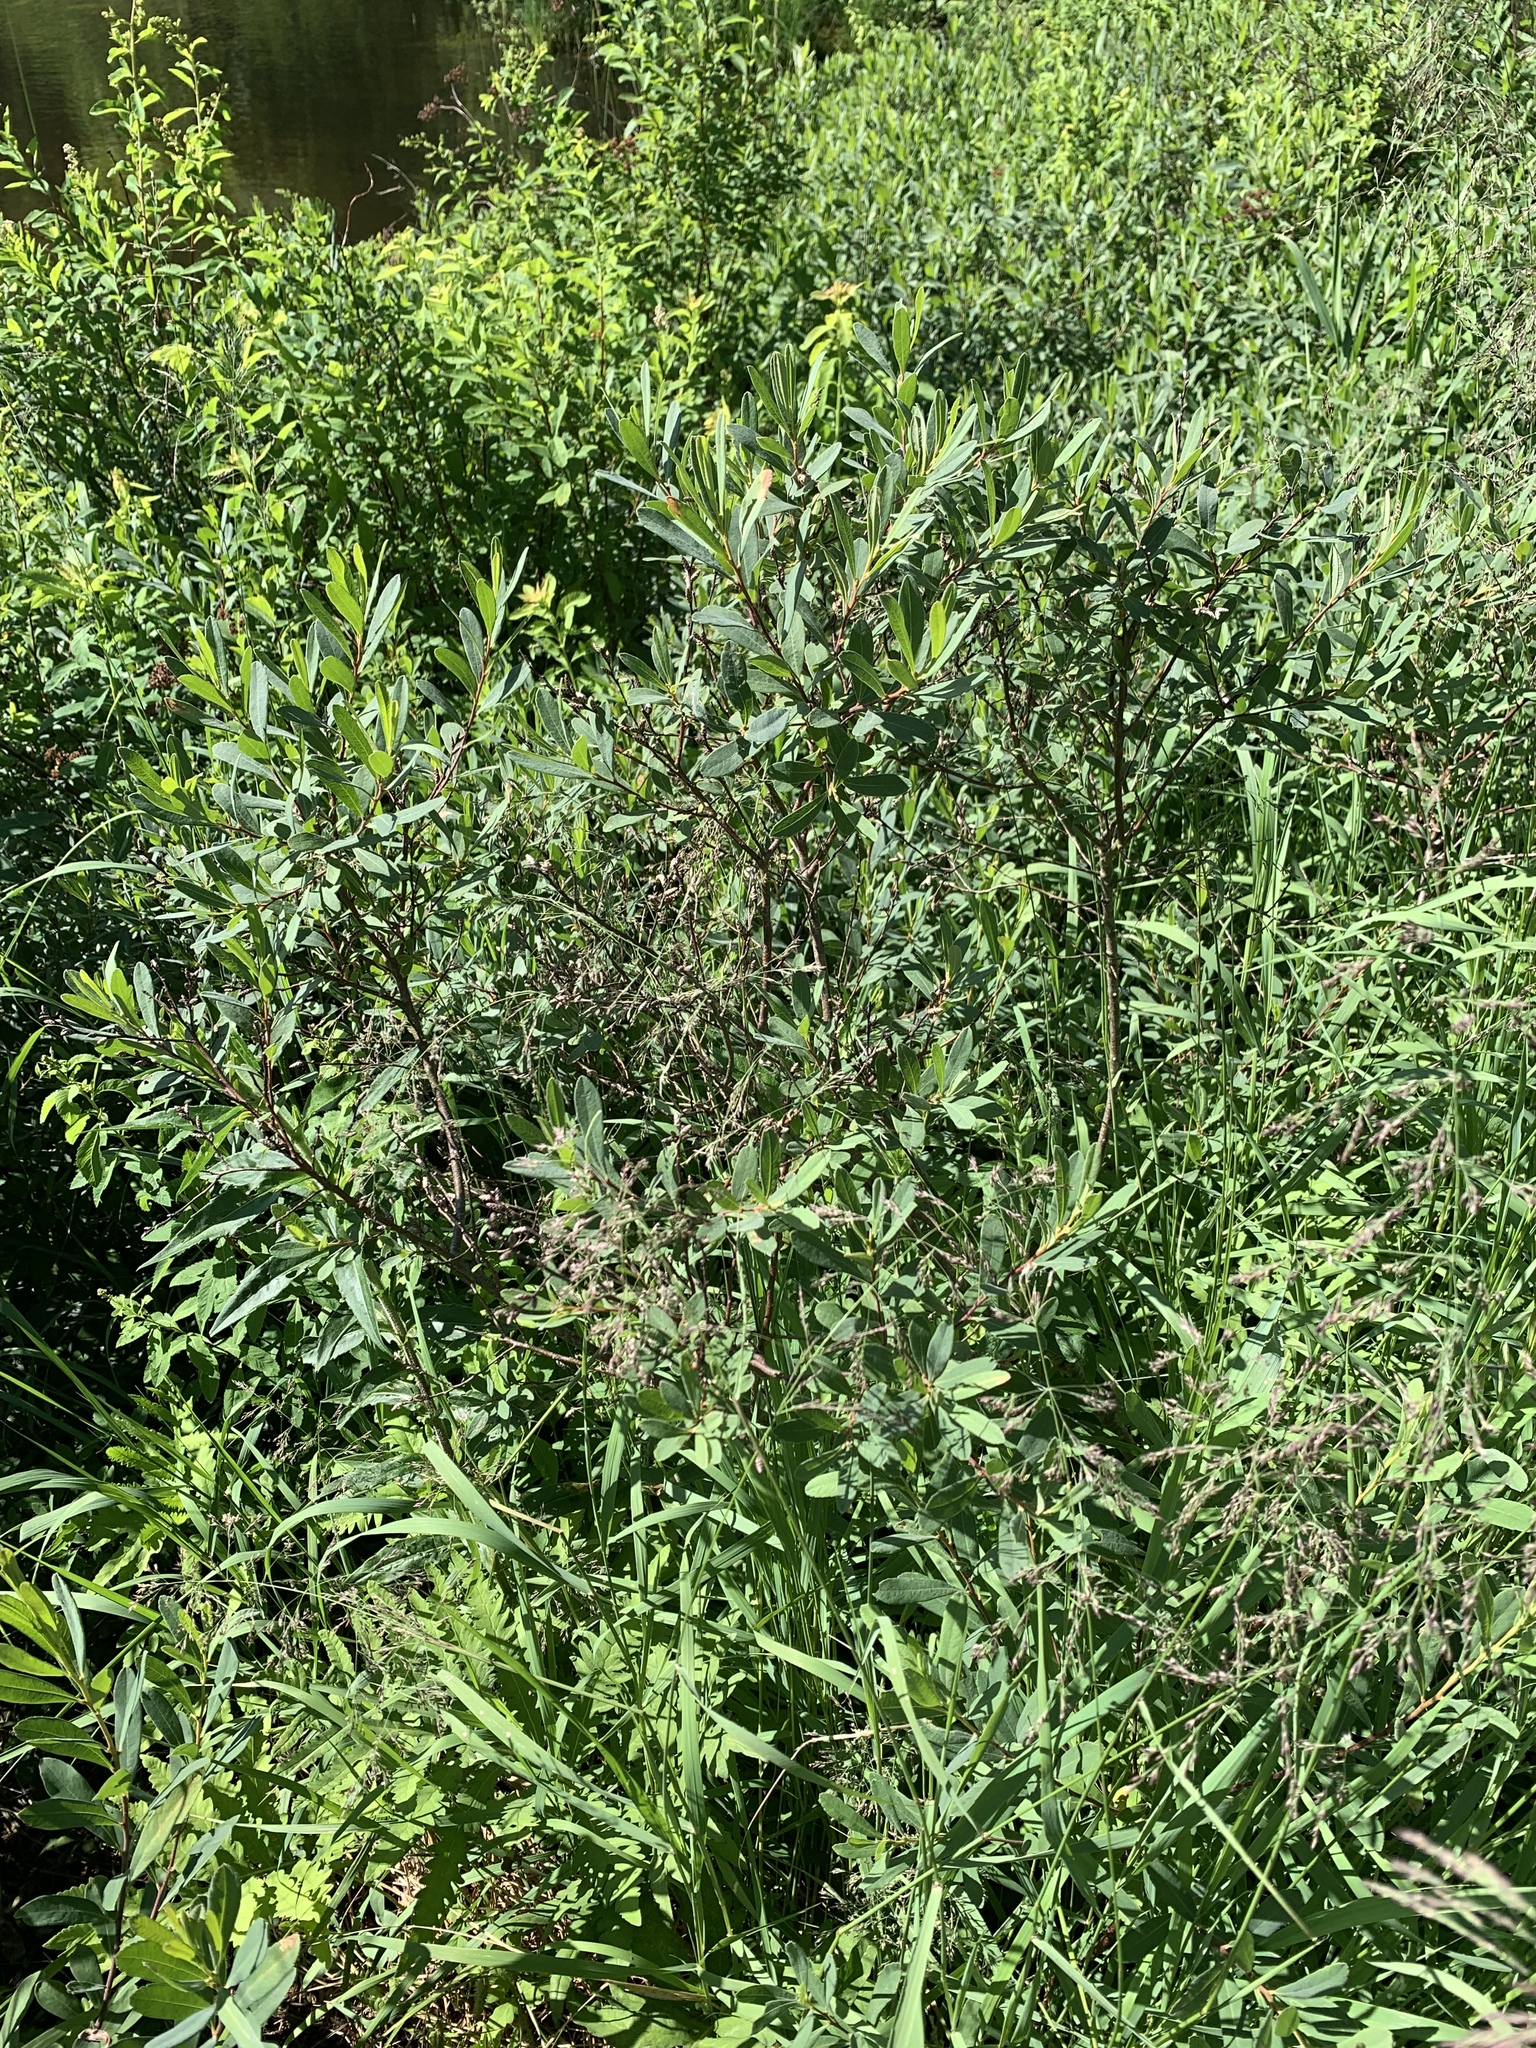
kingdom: Plantae
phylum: Tracheophyta
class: Magnoliopsida
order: Fagales
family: Myricaceae
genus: Myrica
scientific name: Myrica gale
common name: Sweet gale
